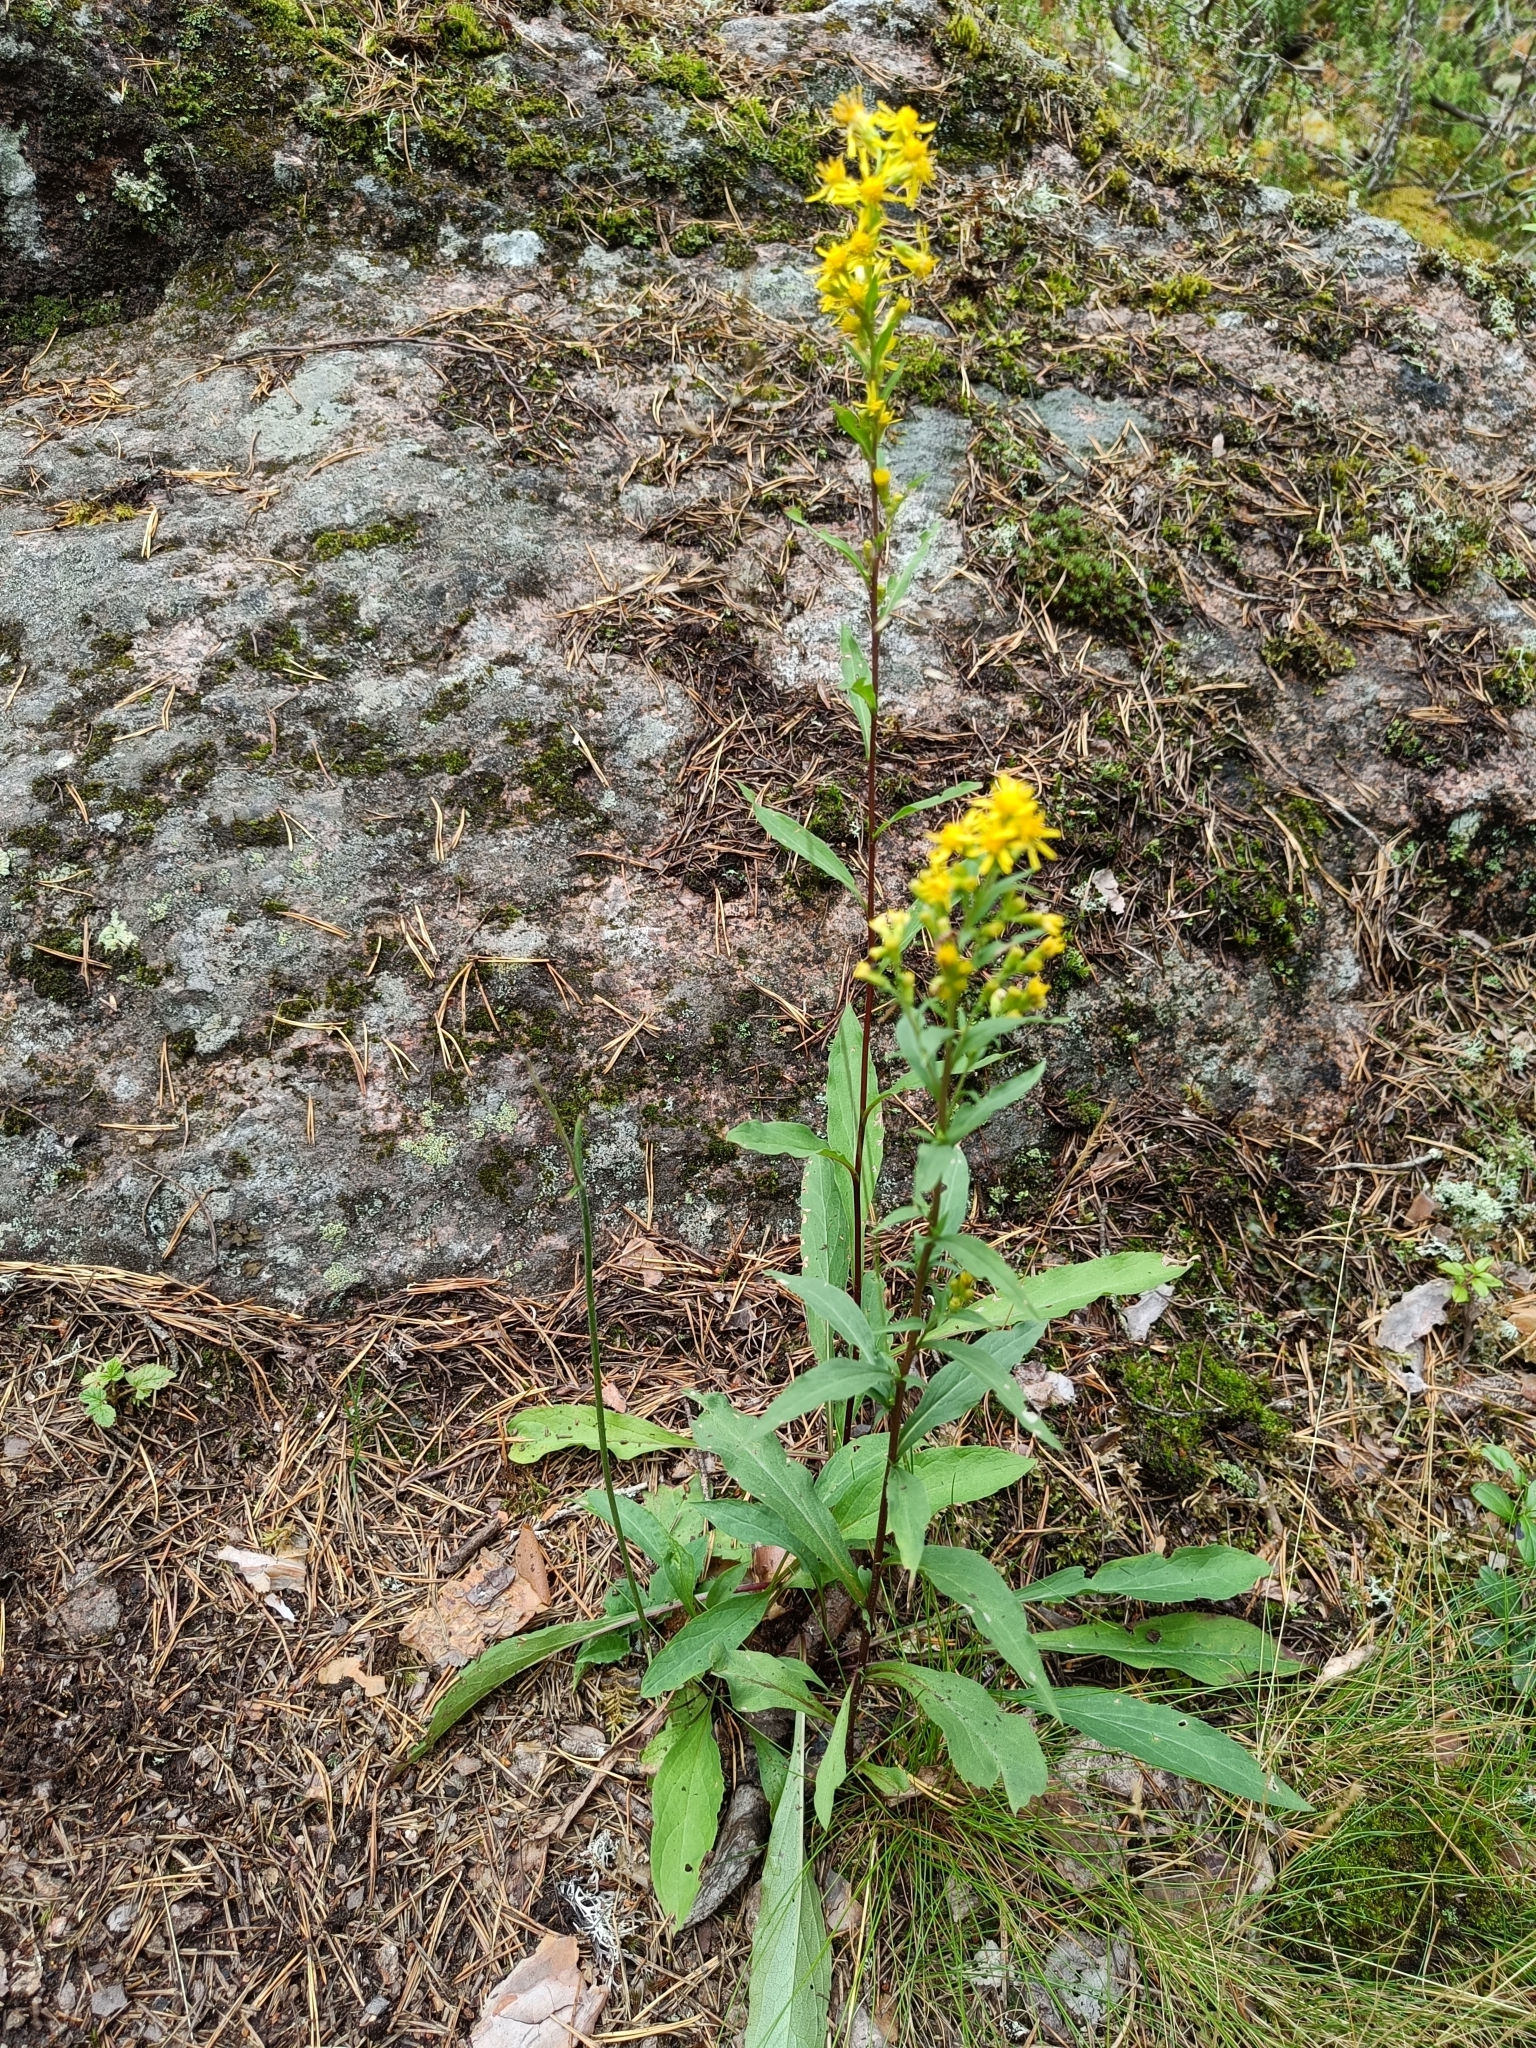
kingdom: Plantae
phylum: Tracheophyta
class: Magnoliopsida
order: Asterales
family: Asteraceae
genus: Solidago
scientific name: Solidago virgaurea
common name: Goldenrod
